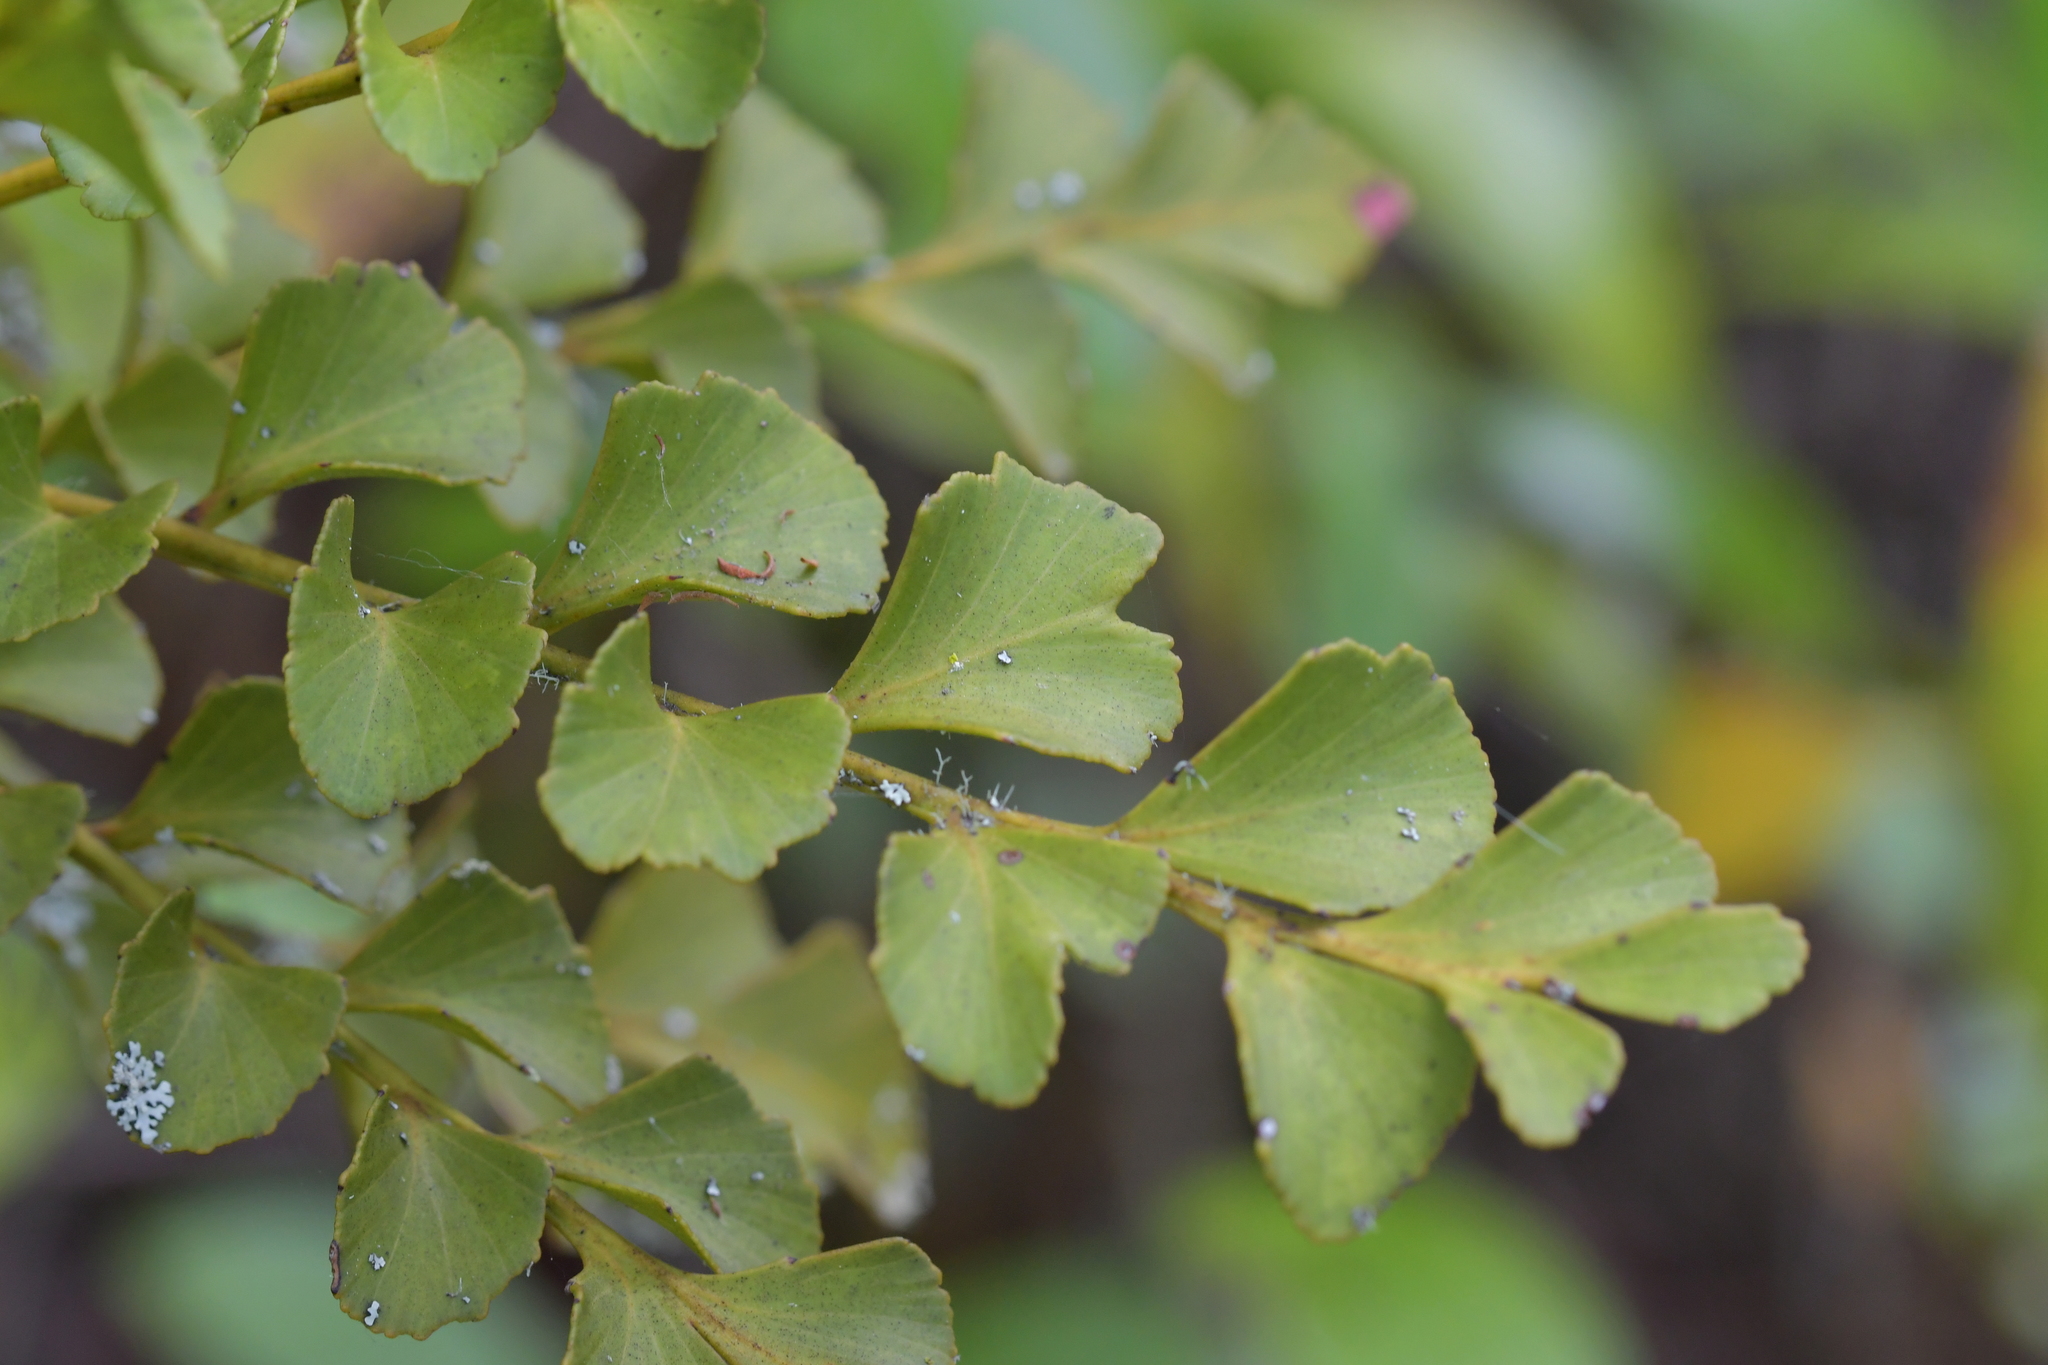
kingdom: Plantae
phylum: Tracheophyta
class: Pinopsida
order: Pinales
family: Phyllocladaceae
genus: Phyllocladus
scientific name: Phyllocladus toatoa
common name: Celery-top pine
